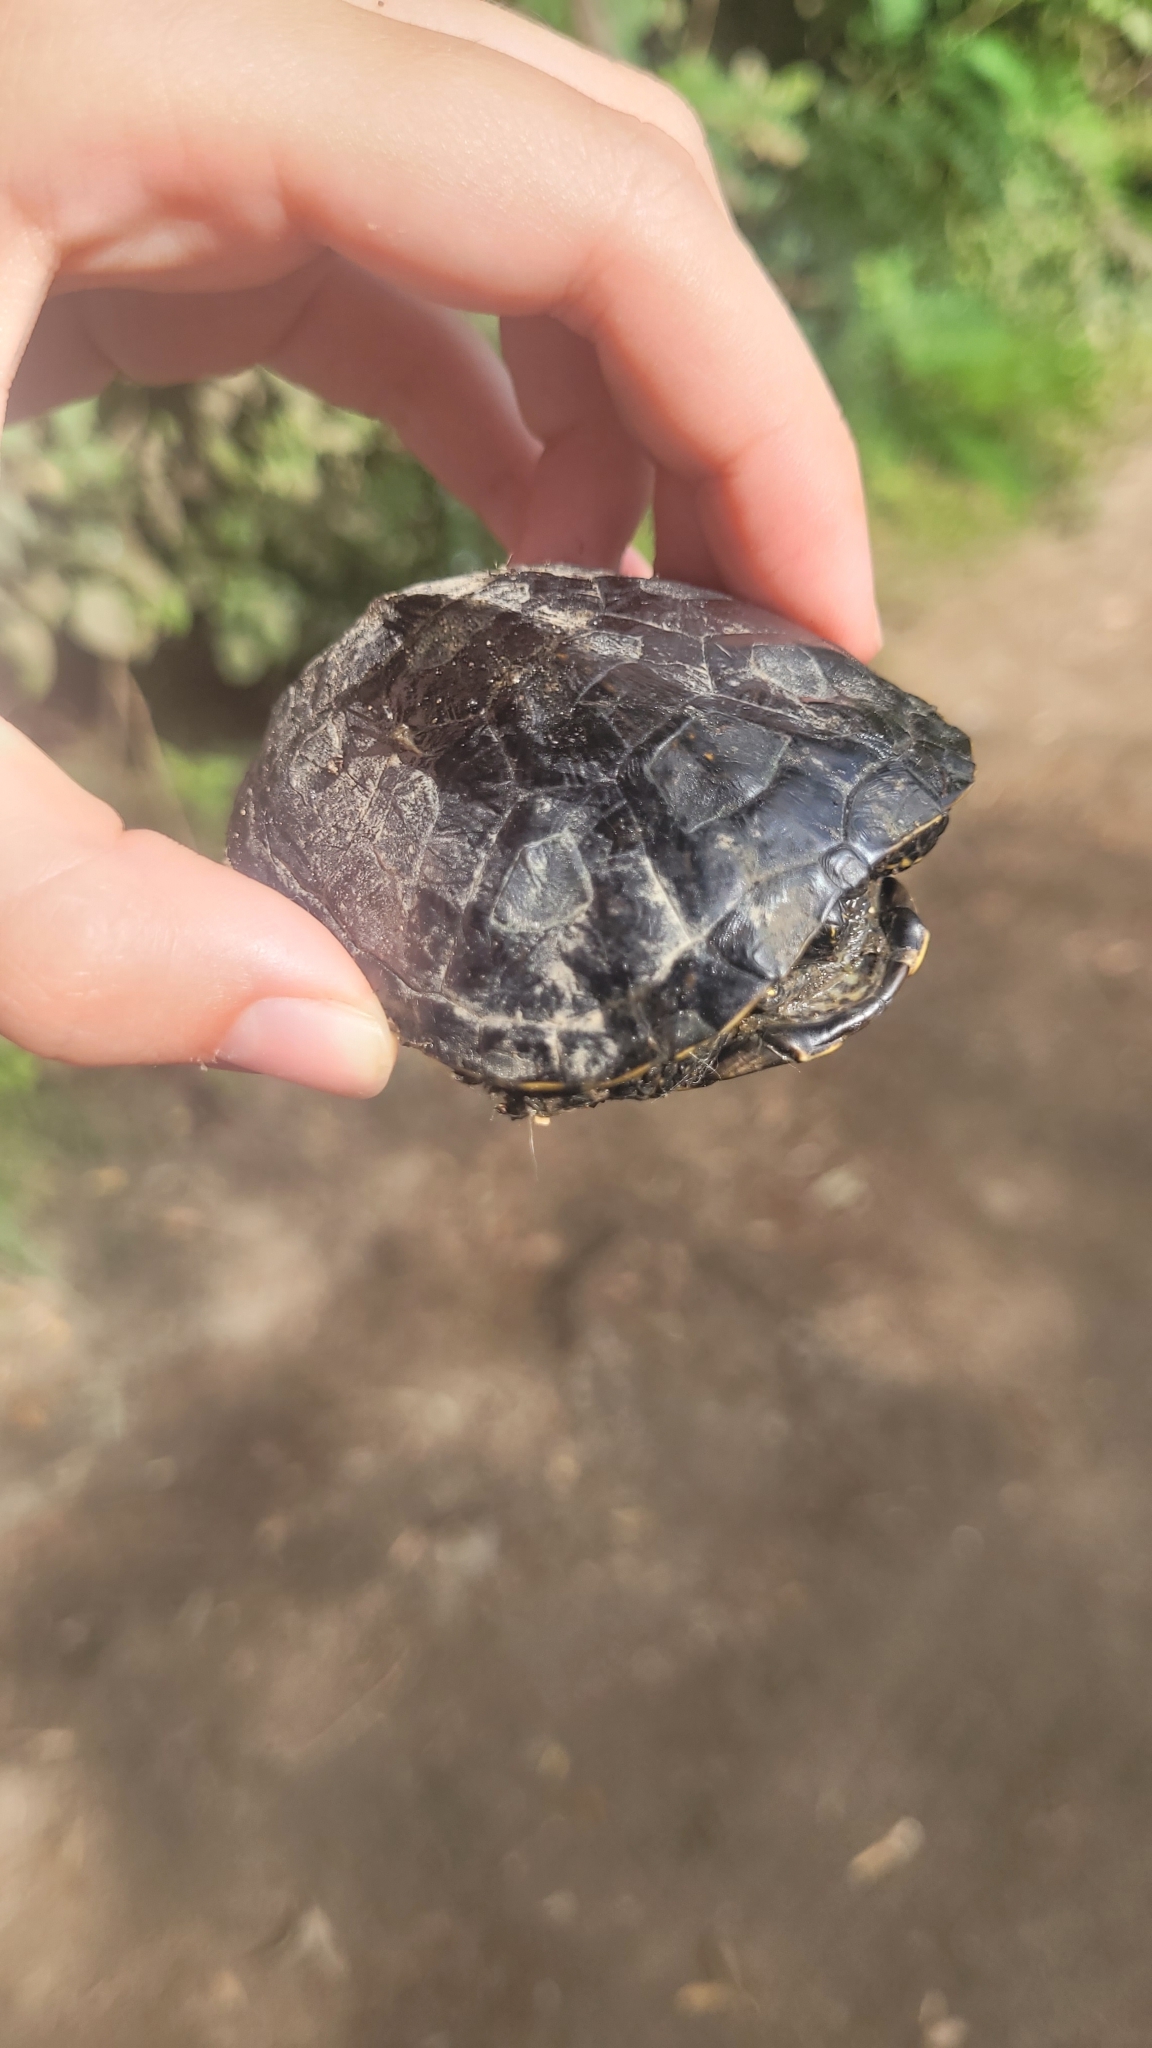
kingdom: Animalia
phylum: Chordata
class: Testudines
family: Emydidae
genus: Emys
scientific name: Emys orbicularis
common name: European pond turtle
